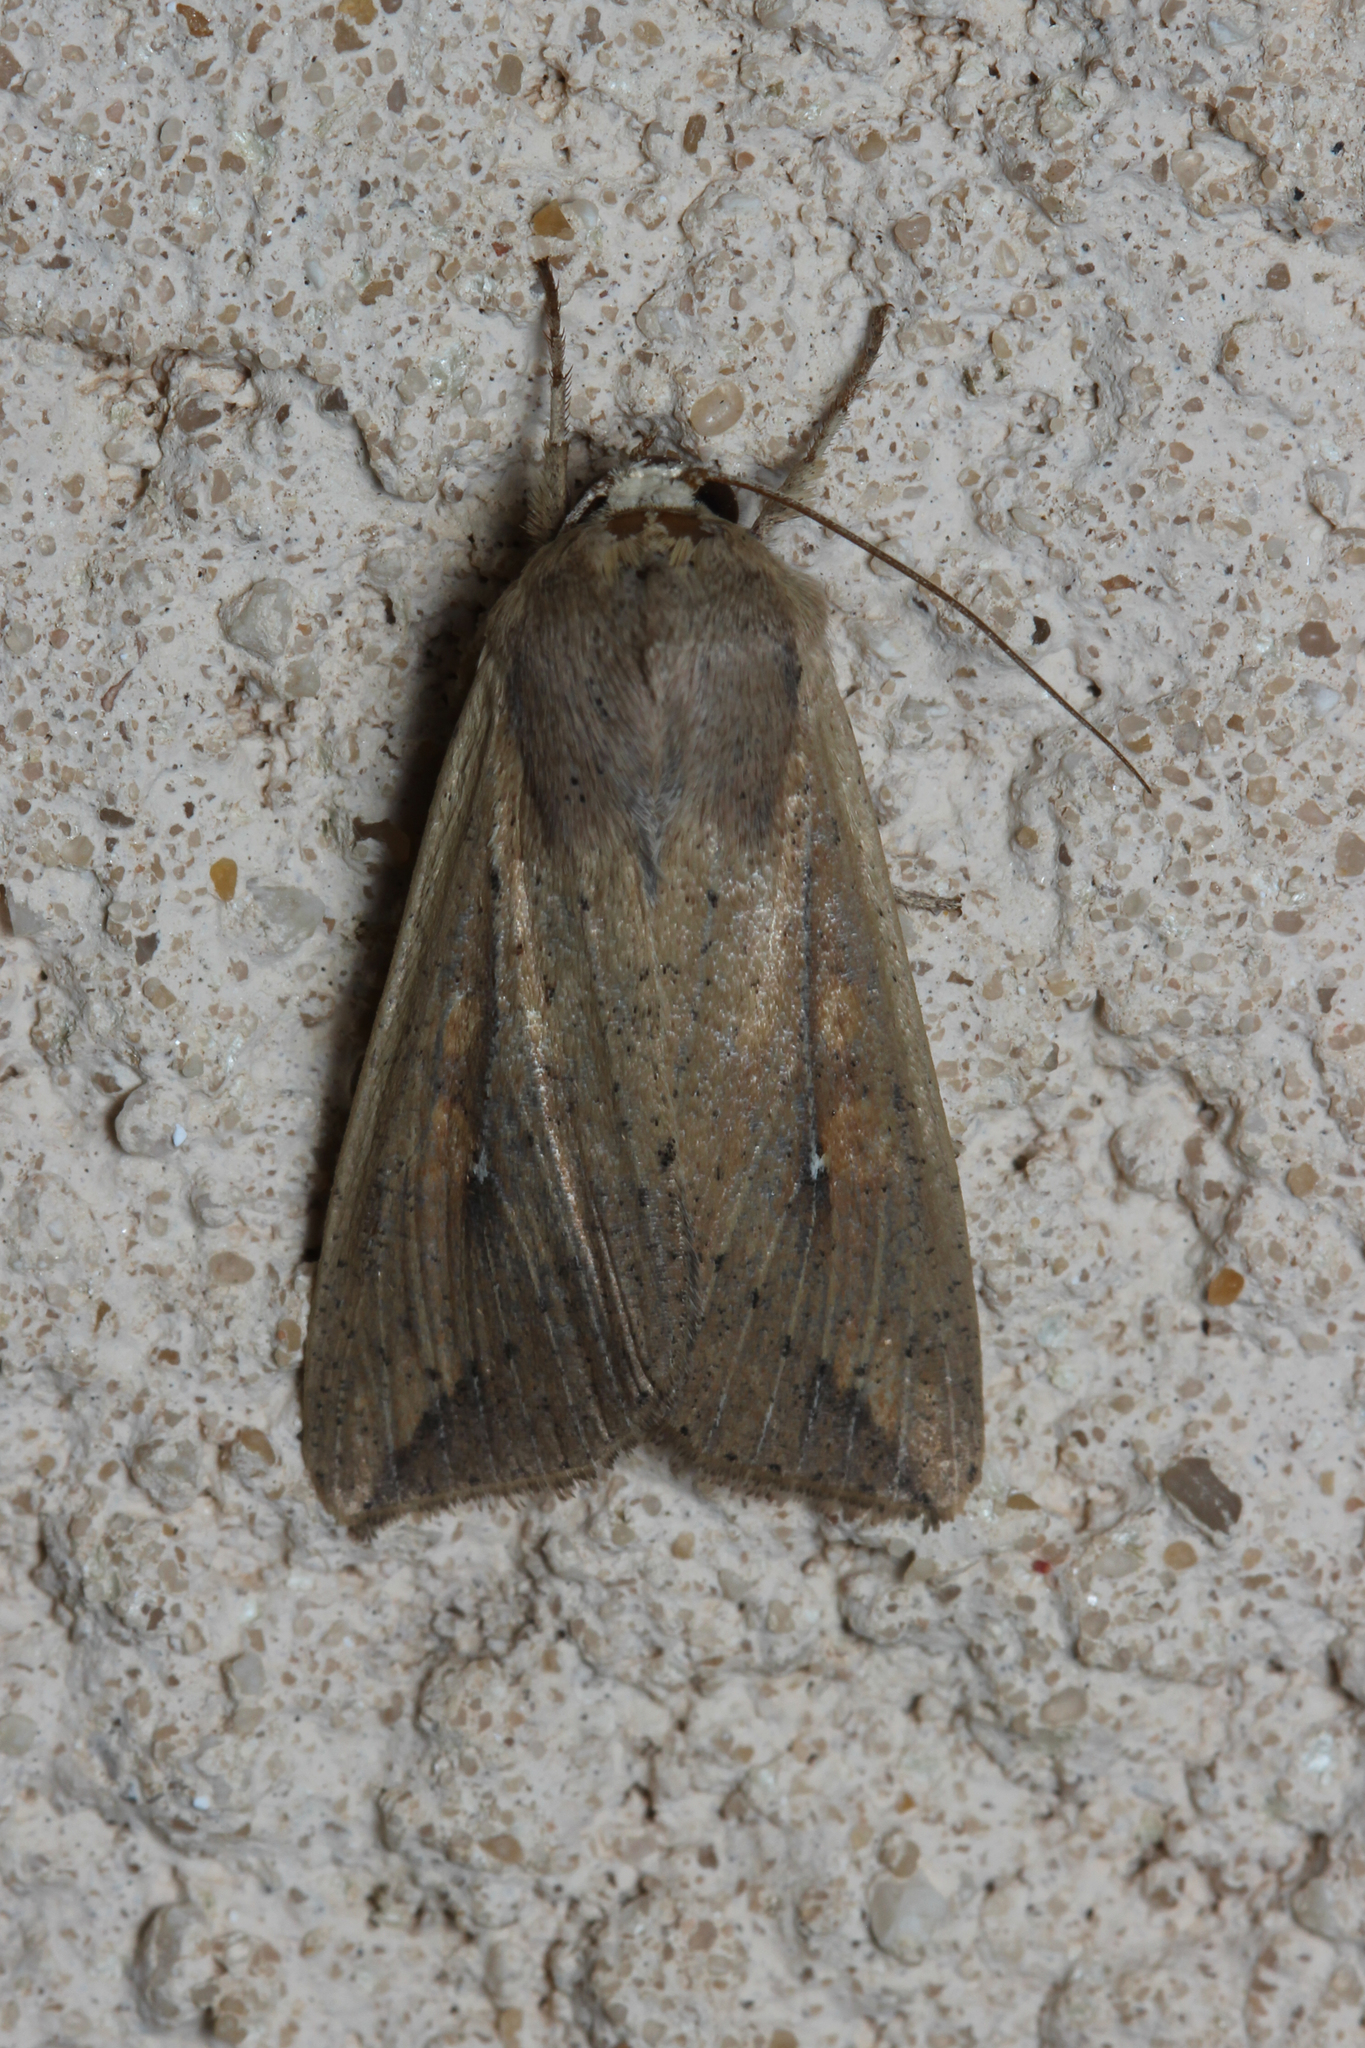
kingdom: Animalia
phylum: Arthropoda
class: Insecta
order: Lepidoptera
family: Noctuidae
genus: Mythimna
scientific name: Mythimna unipuncta
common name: White-speck
